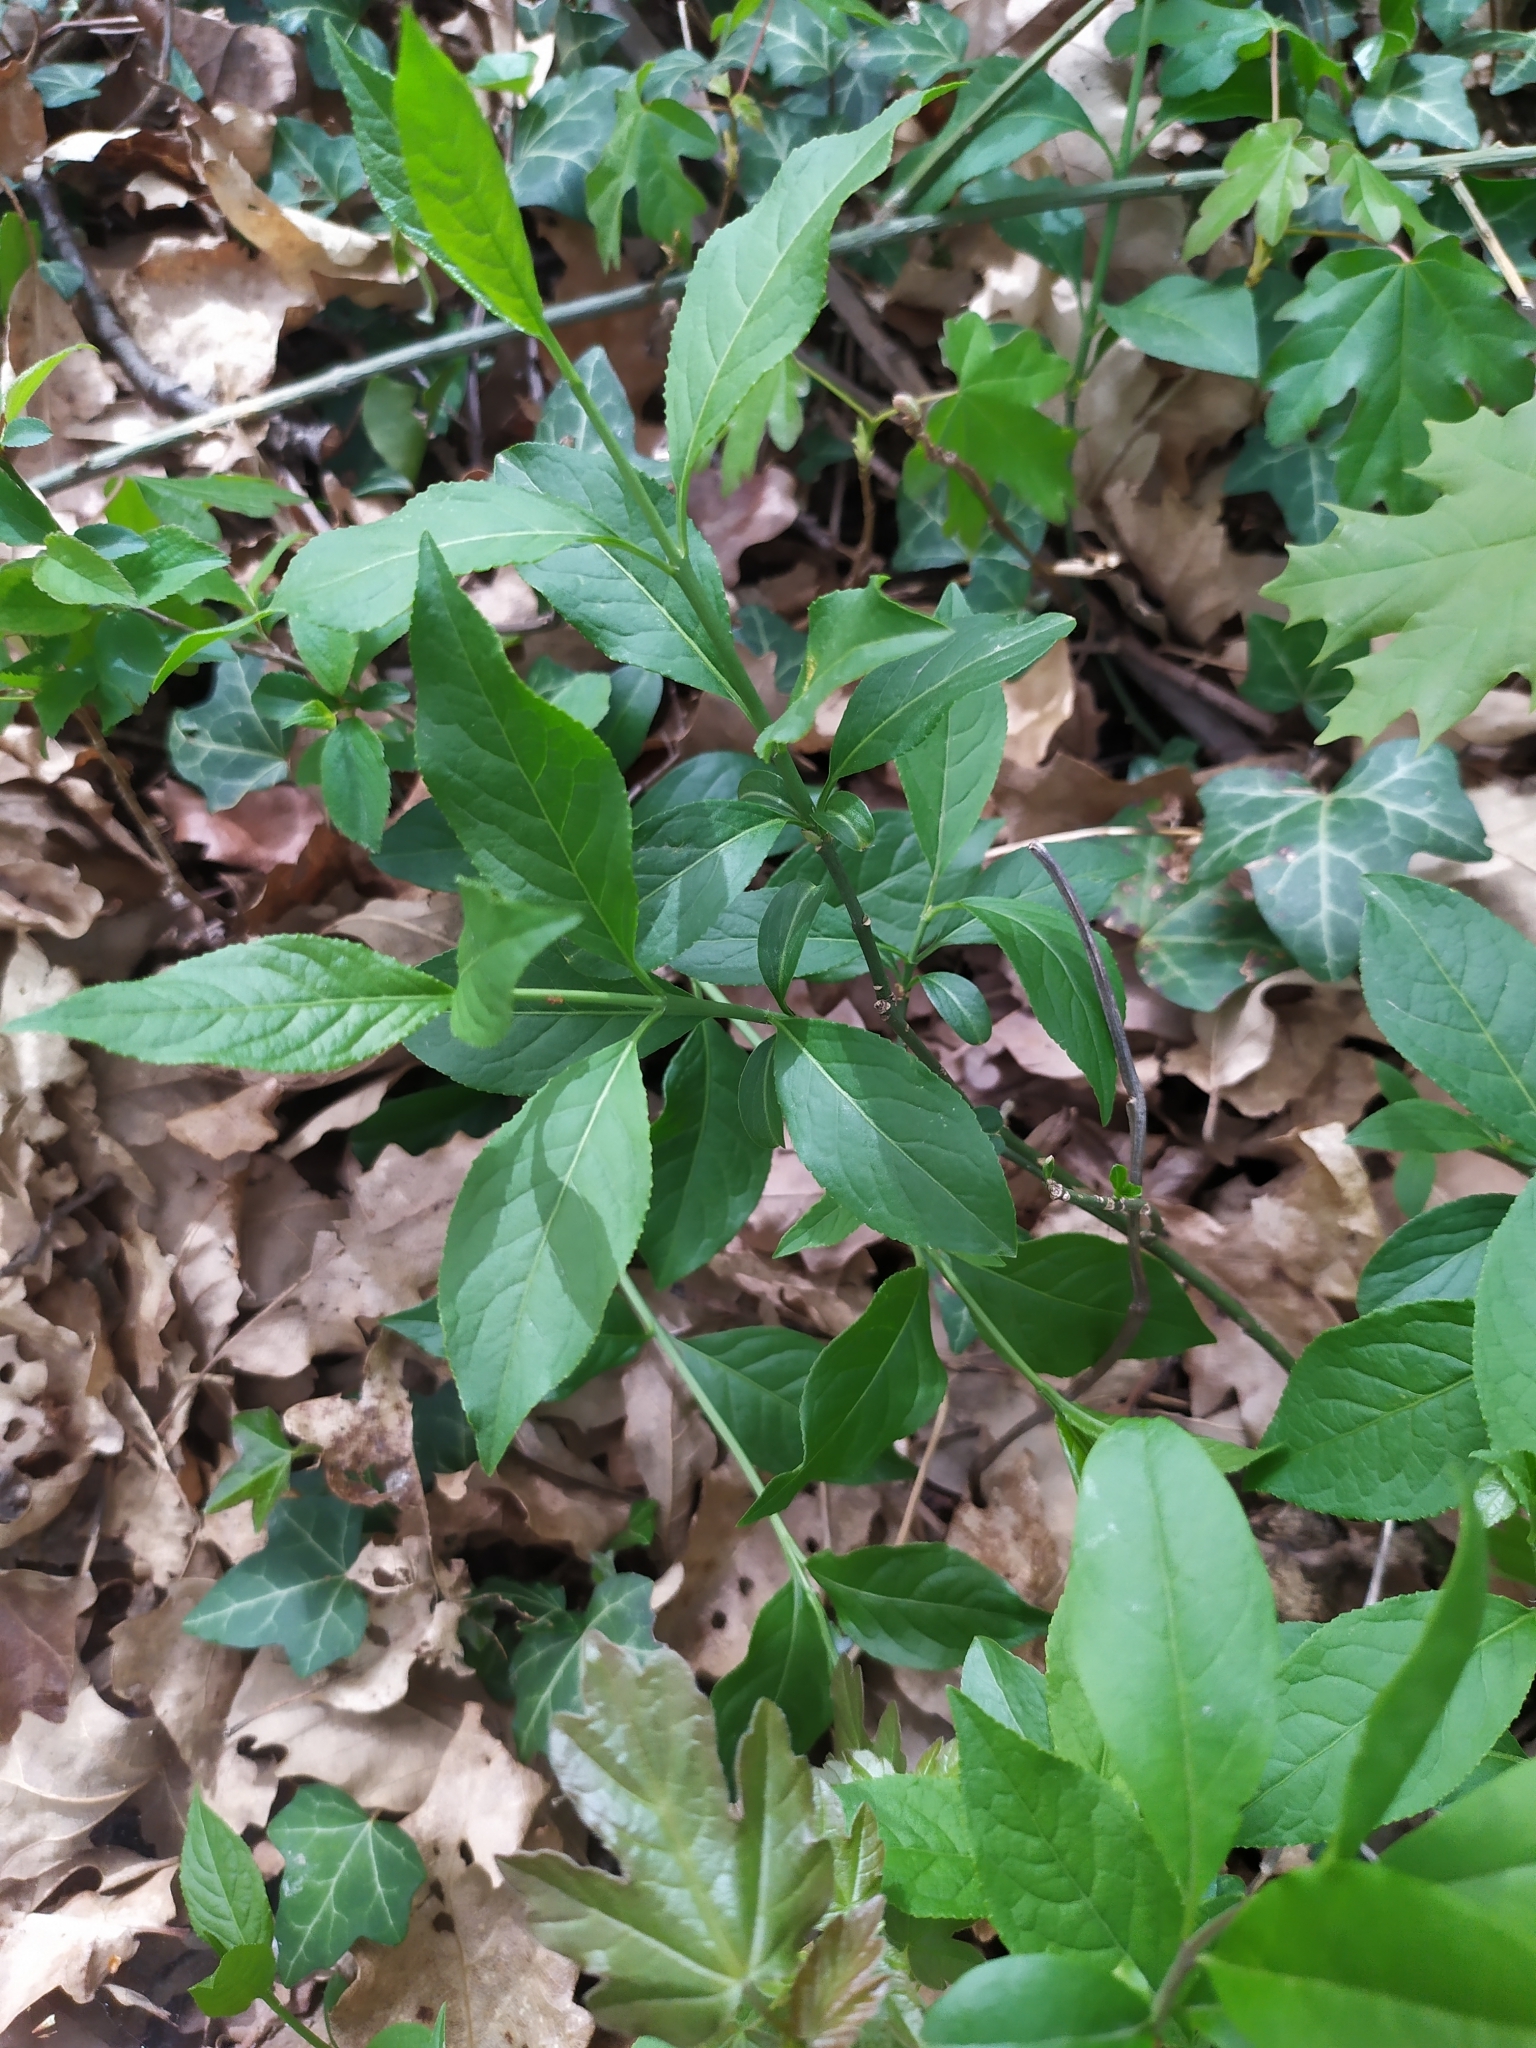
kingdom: Plantae
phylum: Tracheophyta
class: Magnoliopsida
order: Celastrales
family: Celastraceae
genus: Euonymus
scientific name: Euonymus europaeus
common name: Spindle
